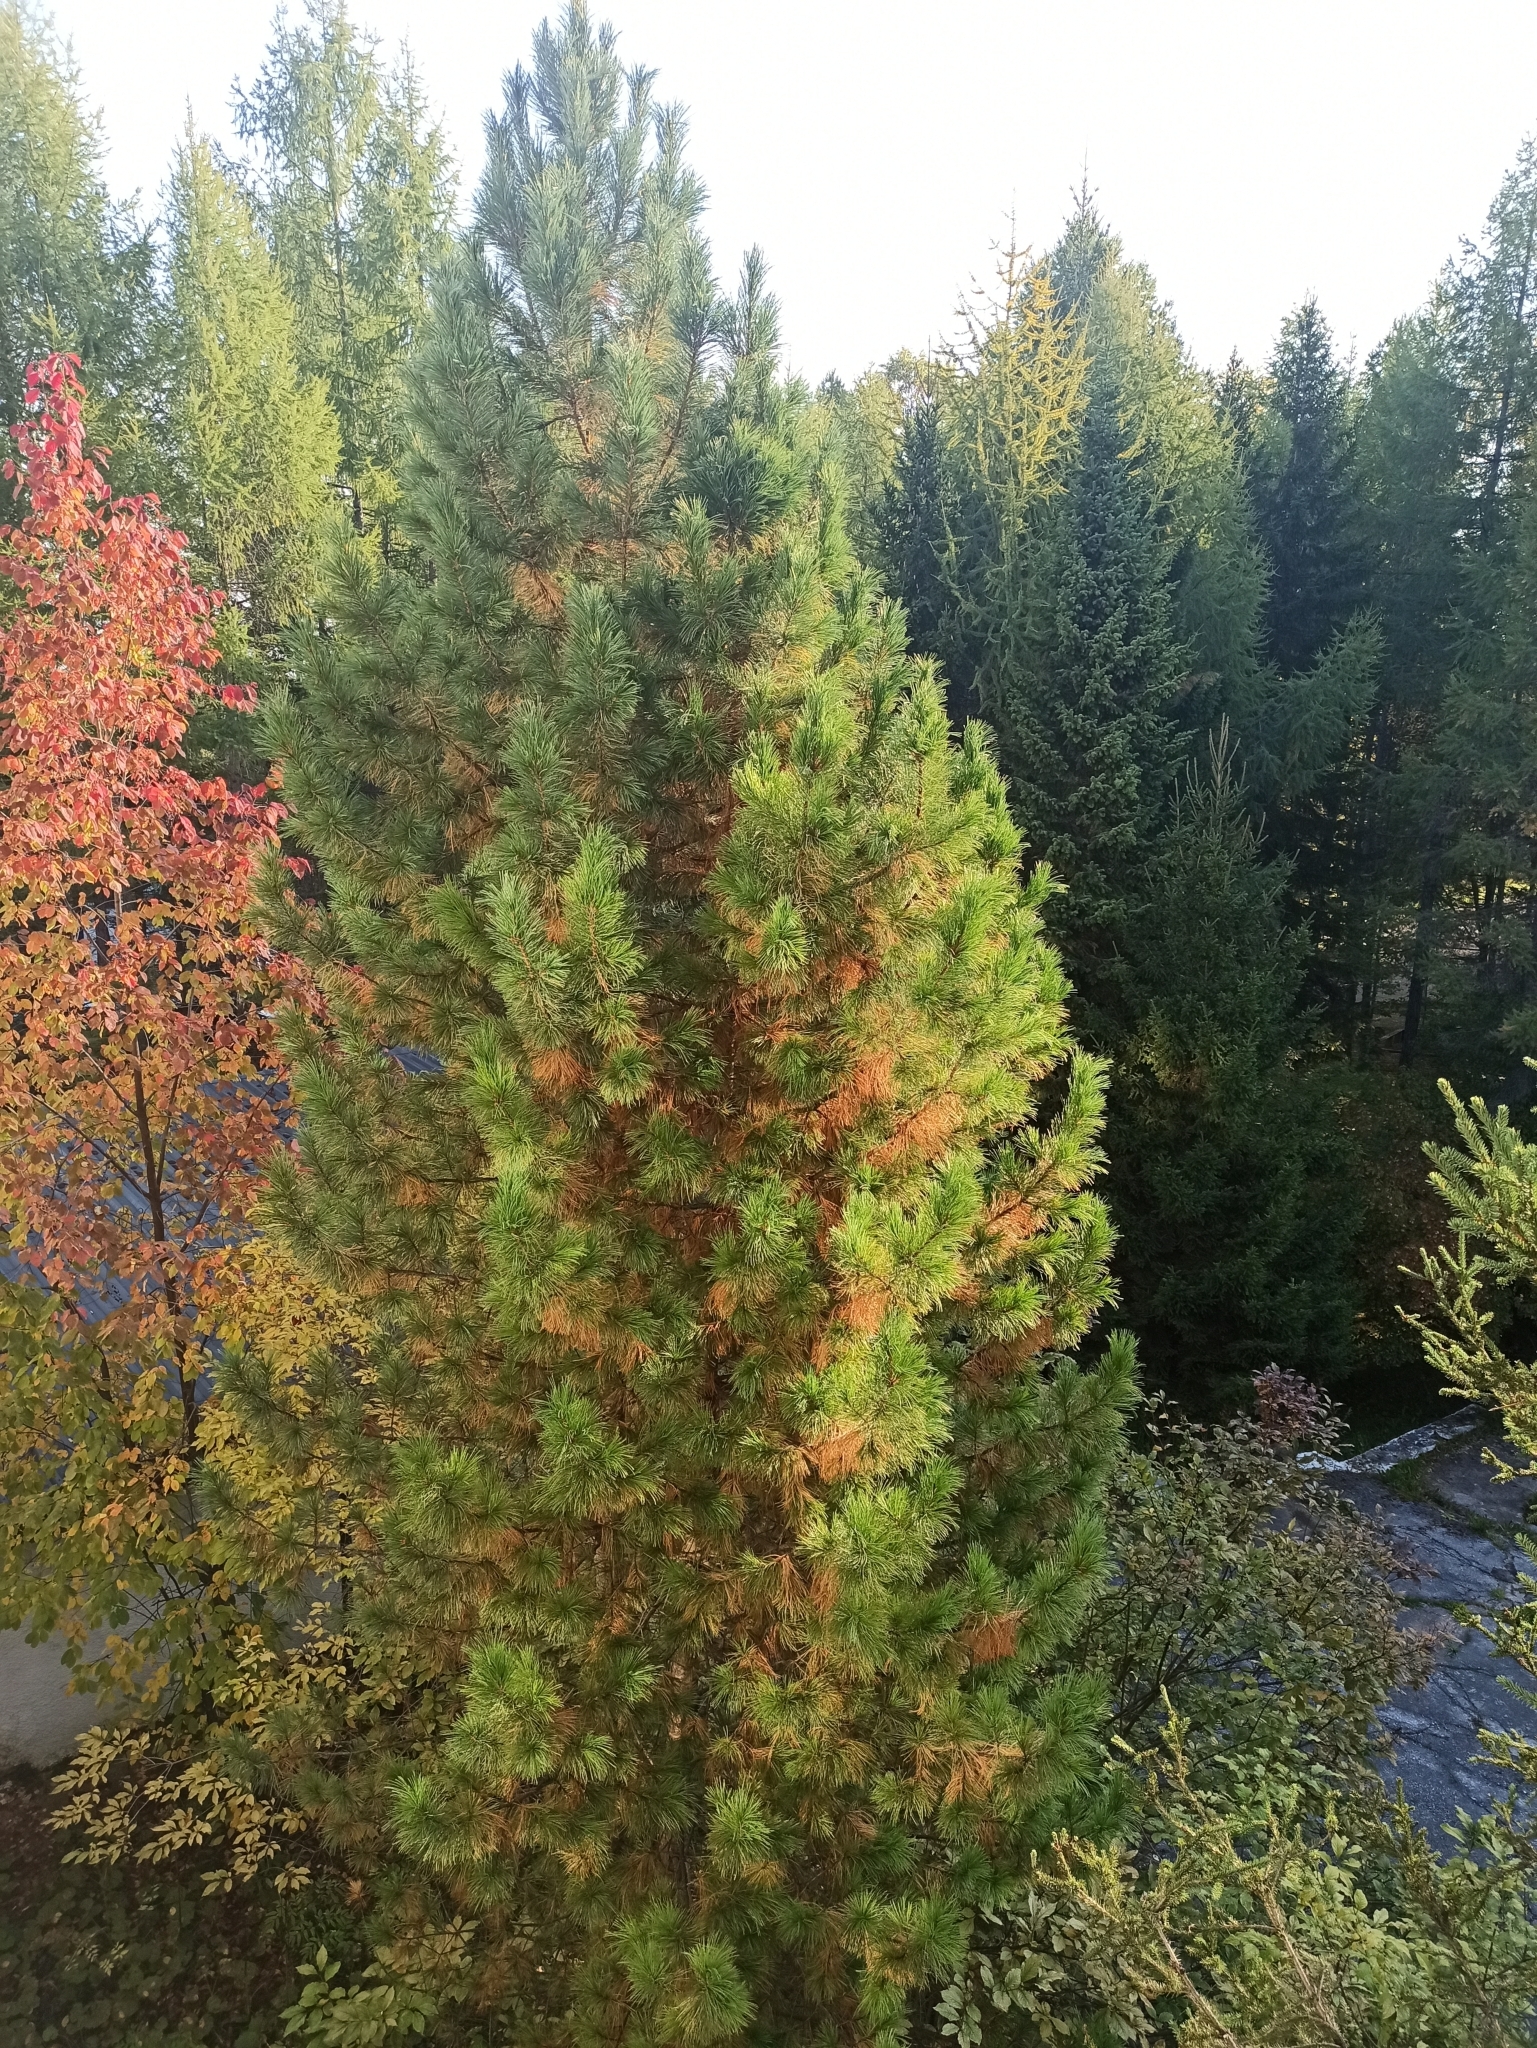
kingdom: Plantae
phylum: Tracheophyta
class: Pinopsida
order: Pinales
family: Pinaceae
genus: Pinus
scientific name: Pinus sibirica
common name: Siberian pine
